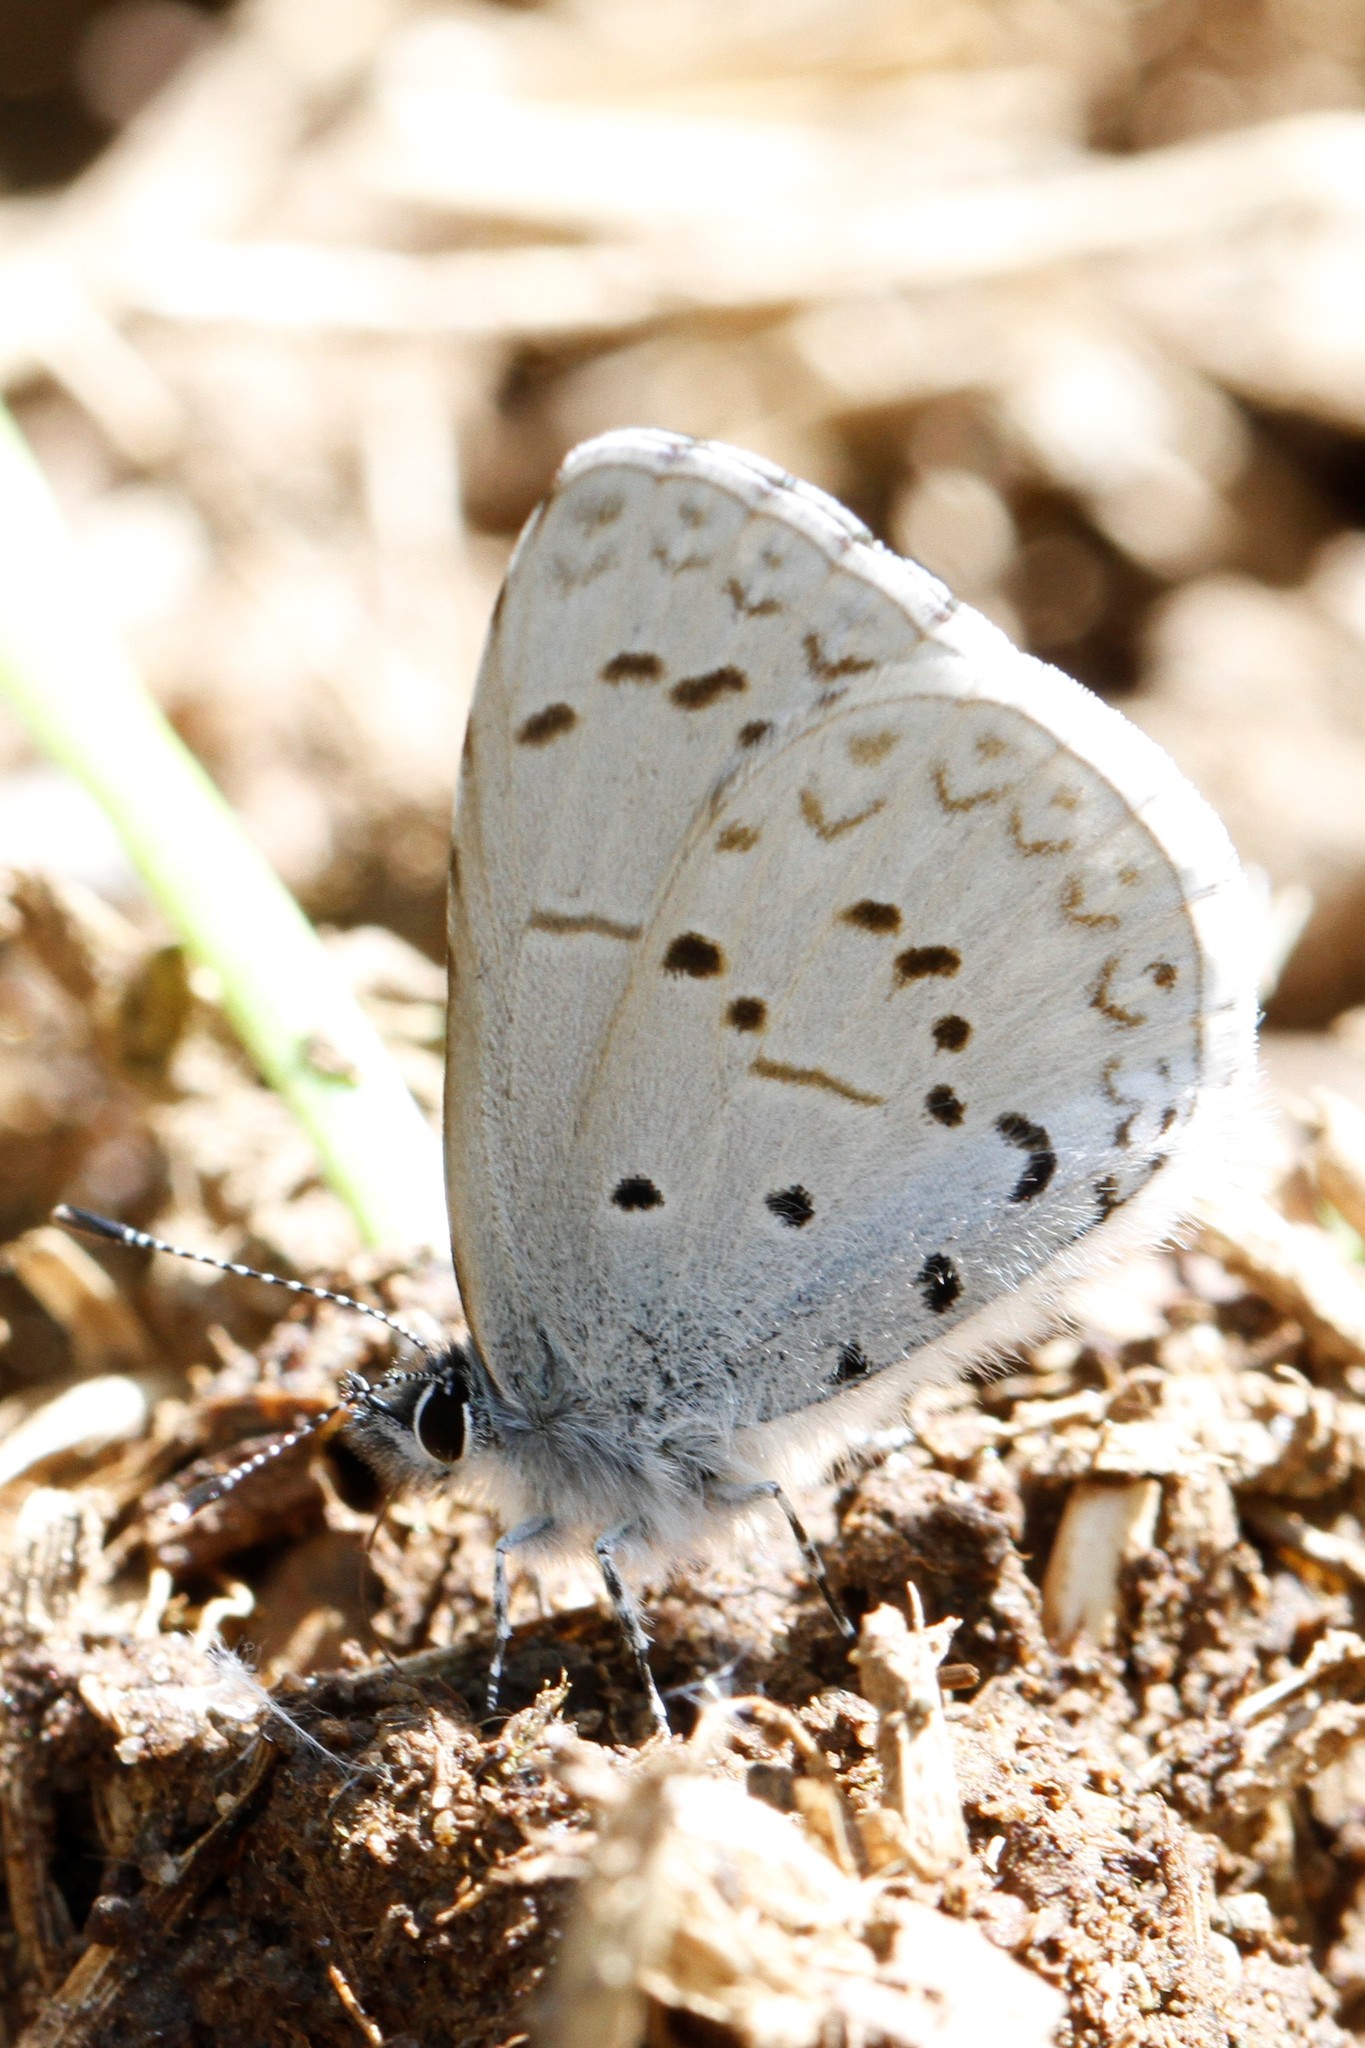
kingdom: Animalia
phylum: Arthropoda
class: Insecta
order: Lepidoptera
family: Lycaenidae
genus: Celastrina
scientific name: Celastrina ladon
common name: Spring azure
